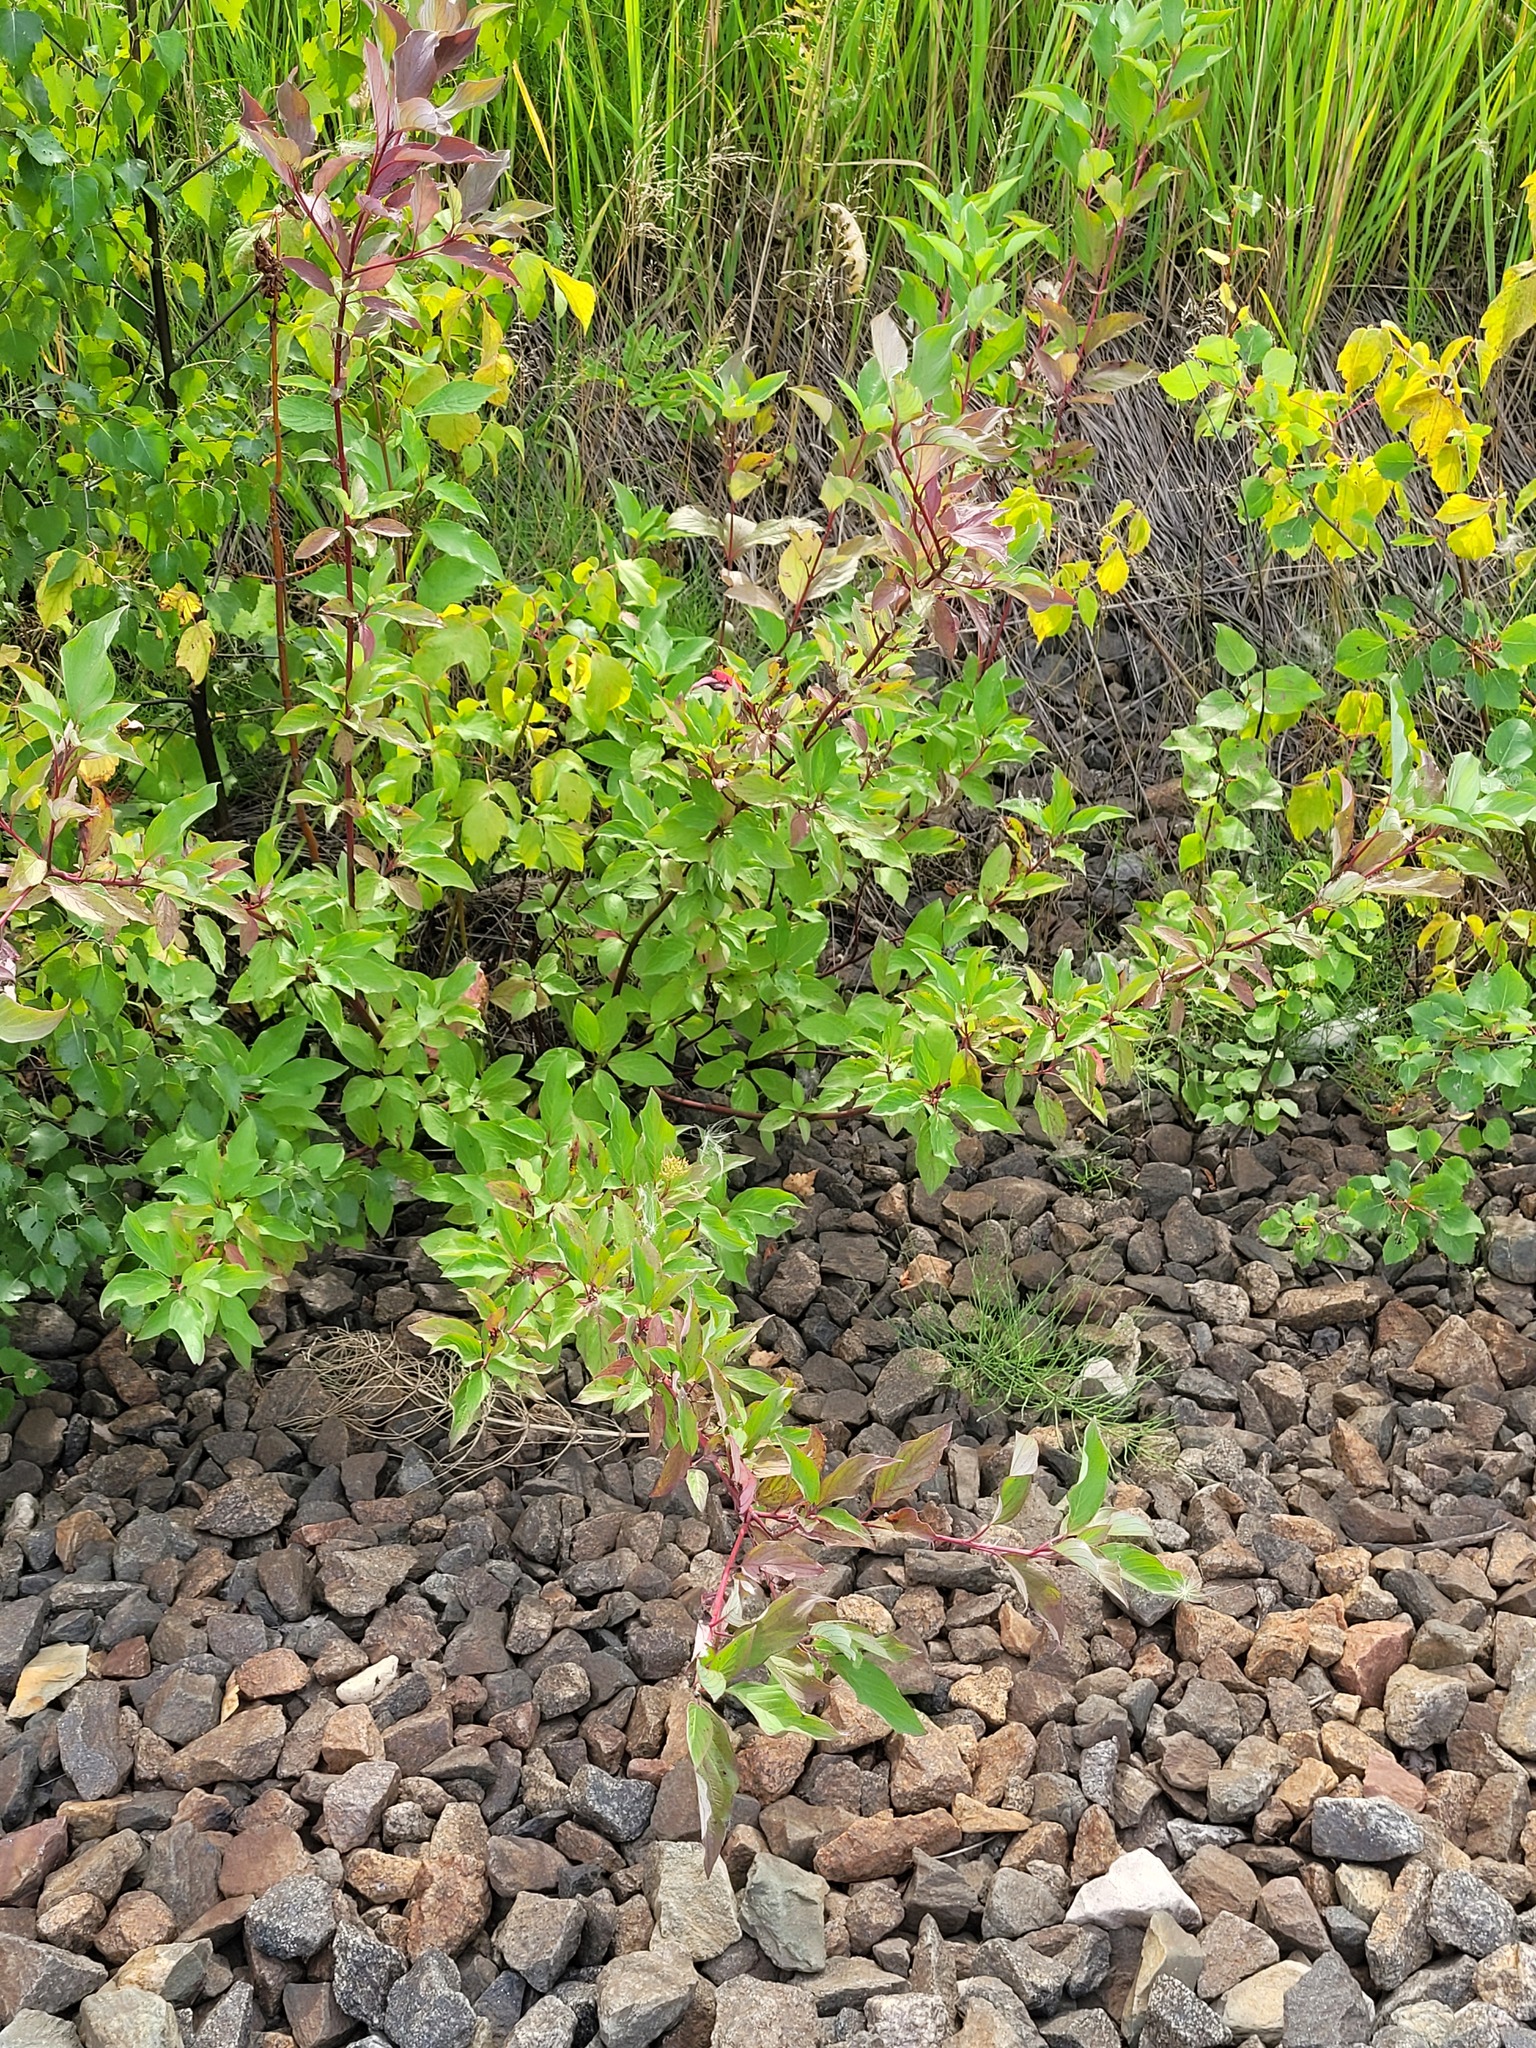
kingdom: Plantae
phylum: Tracheophyta
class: Magnoliopsida
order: Cornales
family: Cornaceae
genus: Cornus
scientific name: Cornus alba
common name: White dogwood
